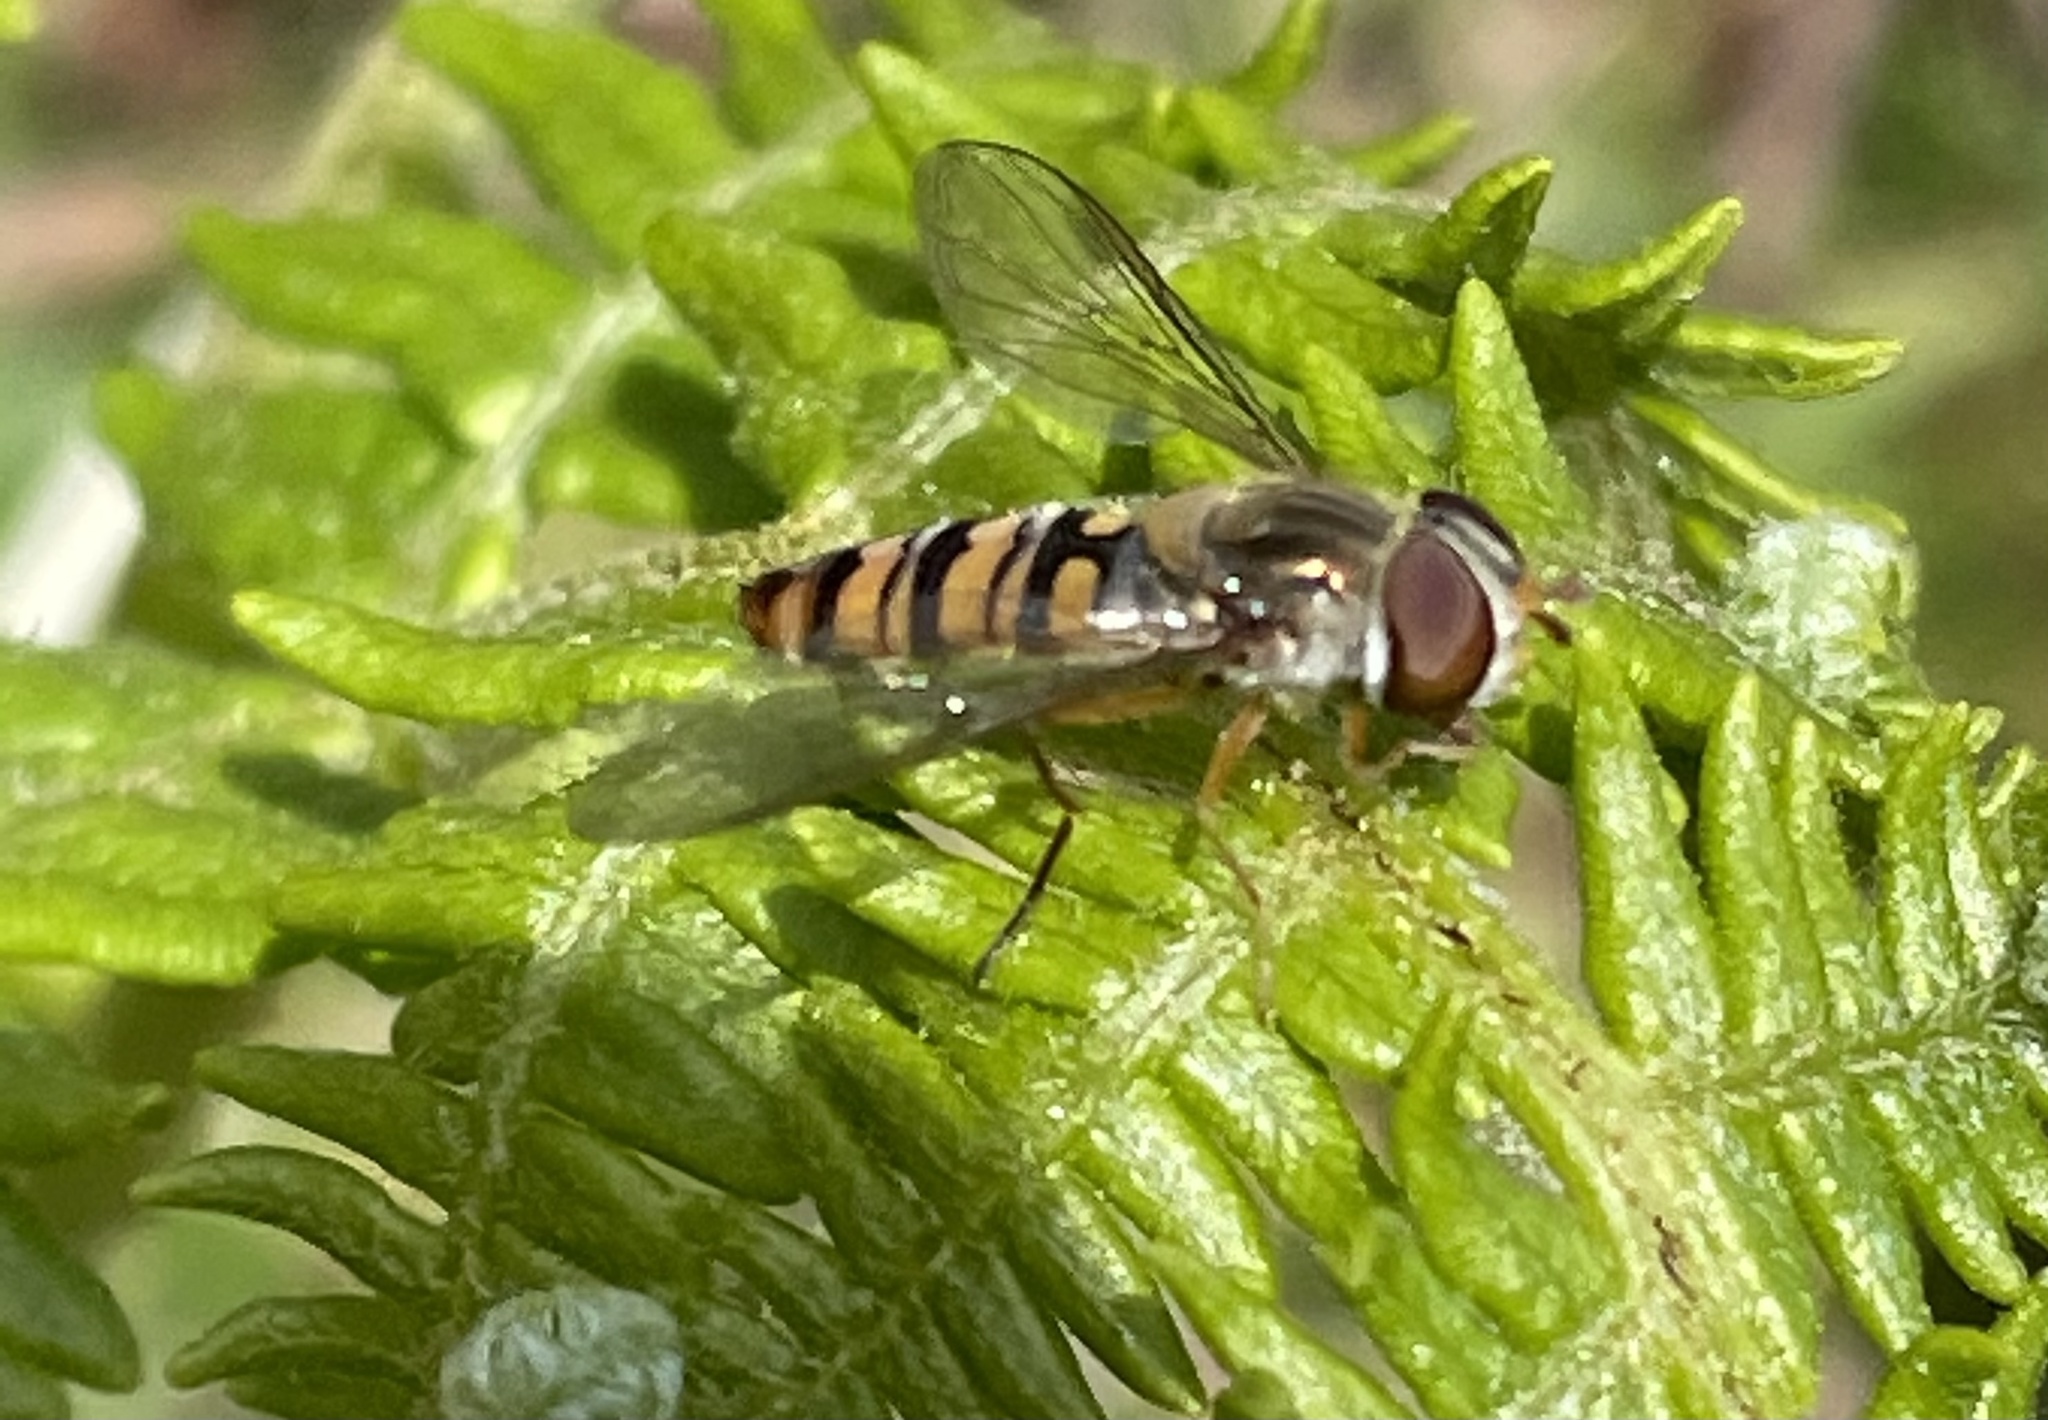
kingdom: Animalia
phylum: Arthropoda
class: Insecta
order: Diptera
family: Syrphidae
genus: Episyrphus
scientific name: Episyrphus balteatus
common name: Marmalade hoverfly
